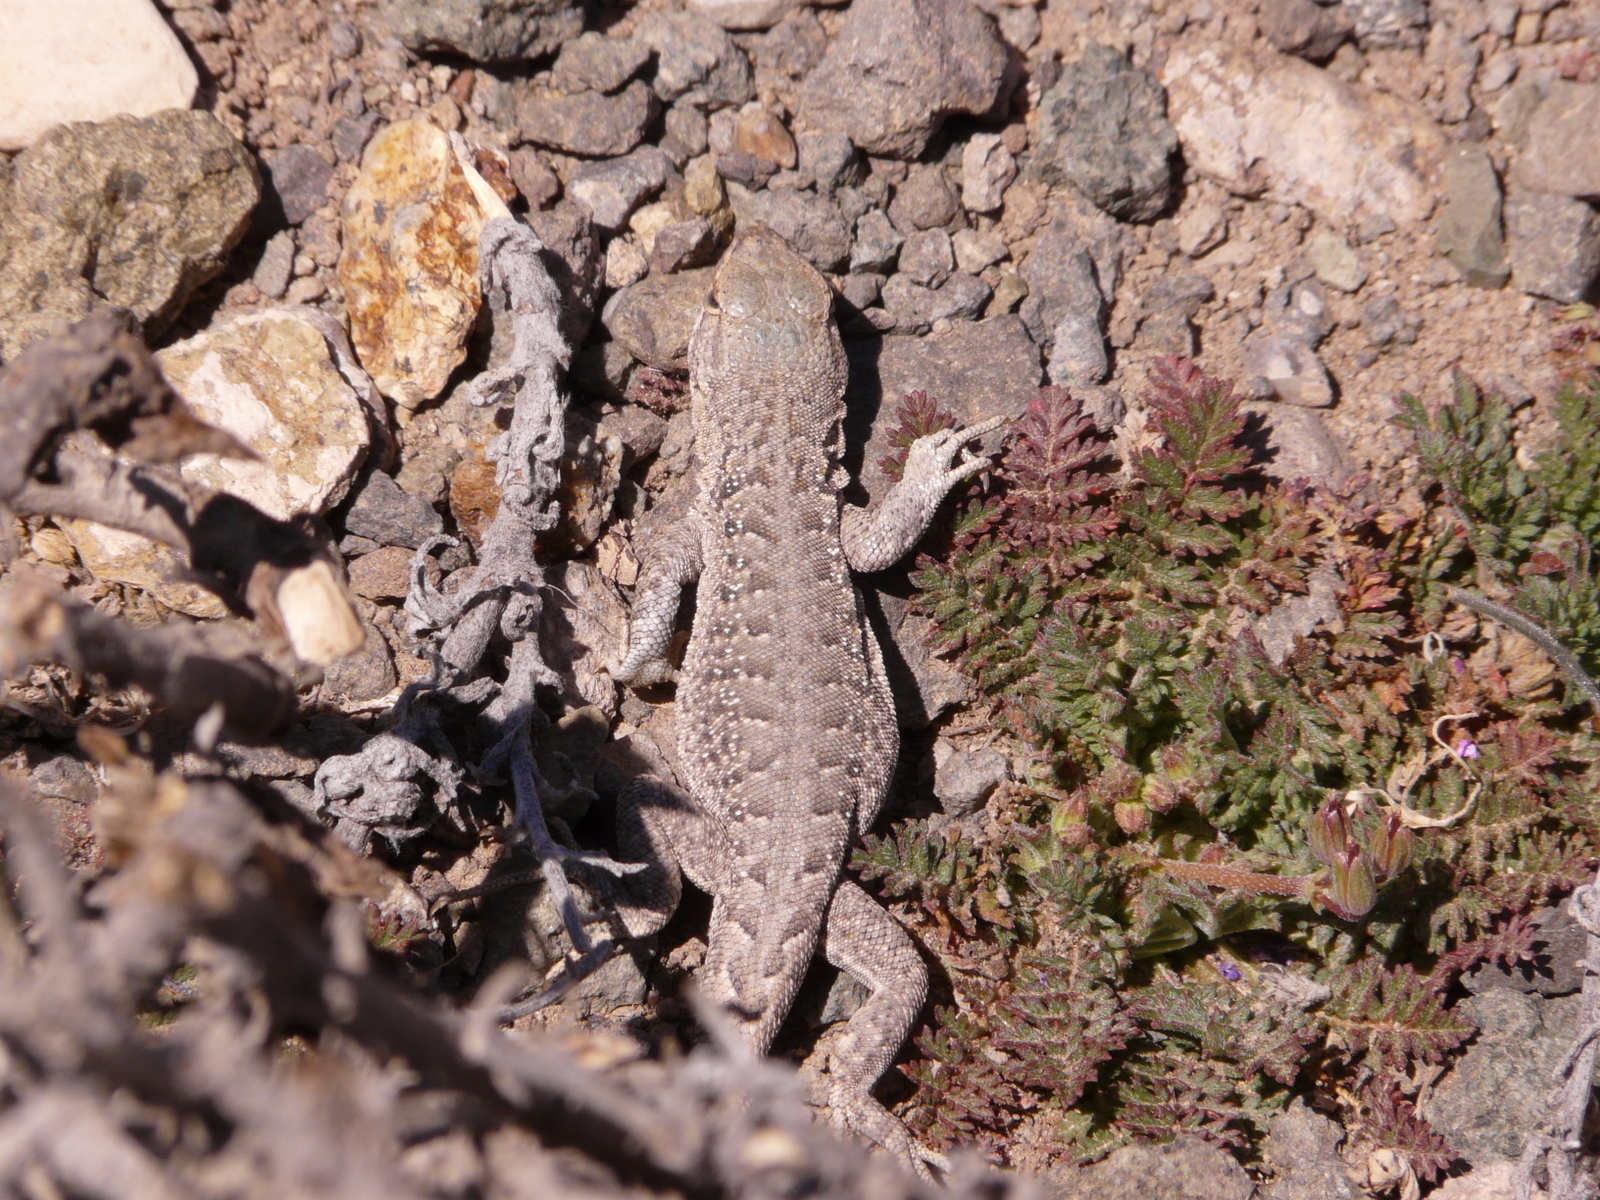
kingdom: Animalia
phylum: Chordata
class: Squamata
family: Liolaemidae
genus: Liolaemus
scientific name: Liolaemus ruibali
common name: Ruibal's tree iguana
